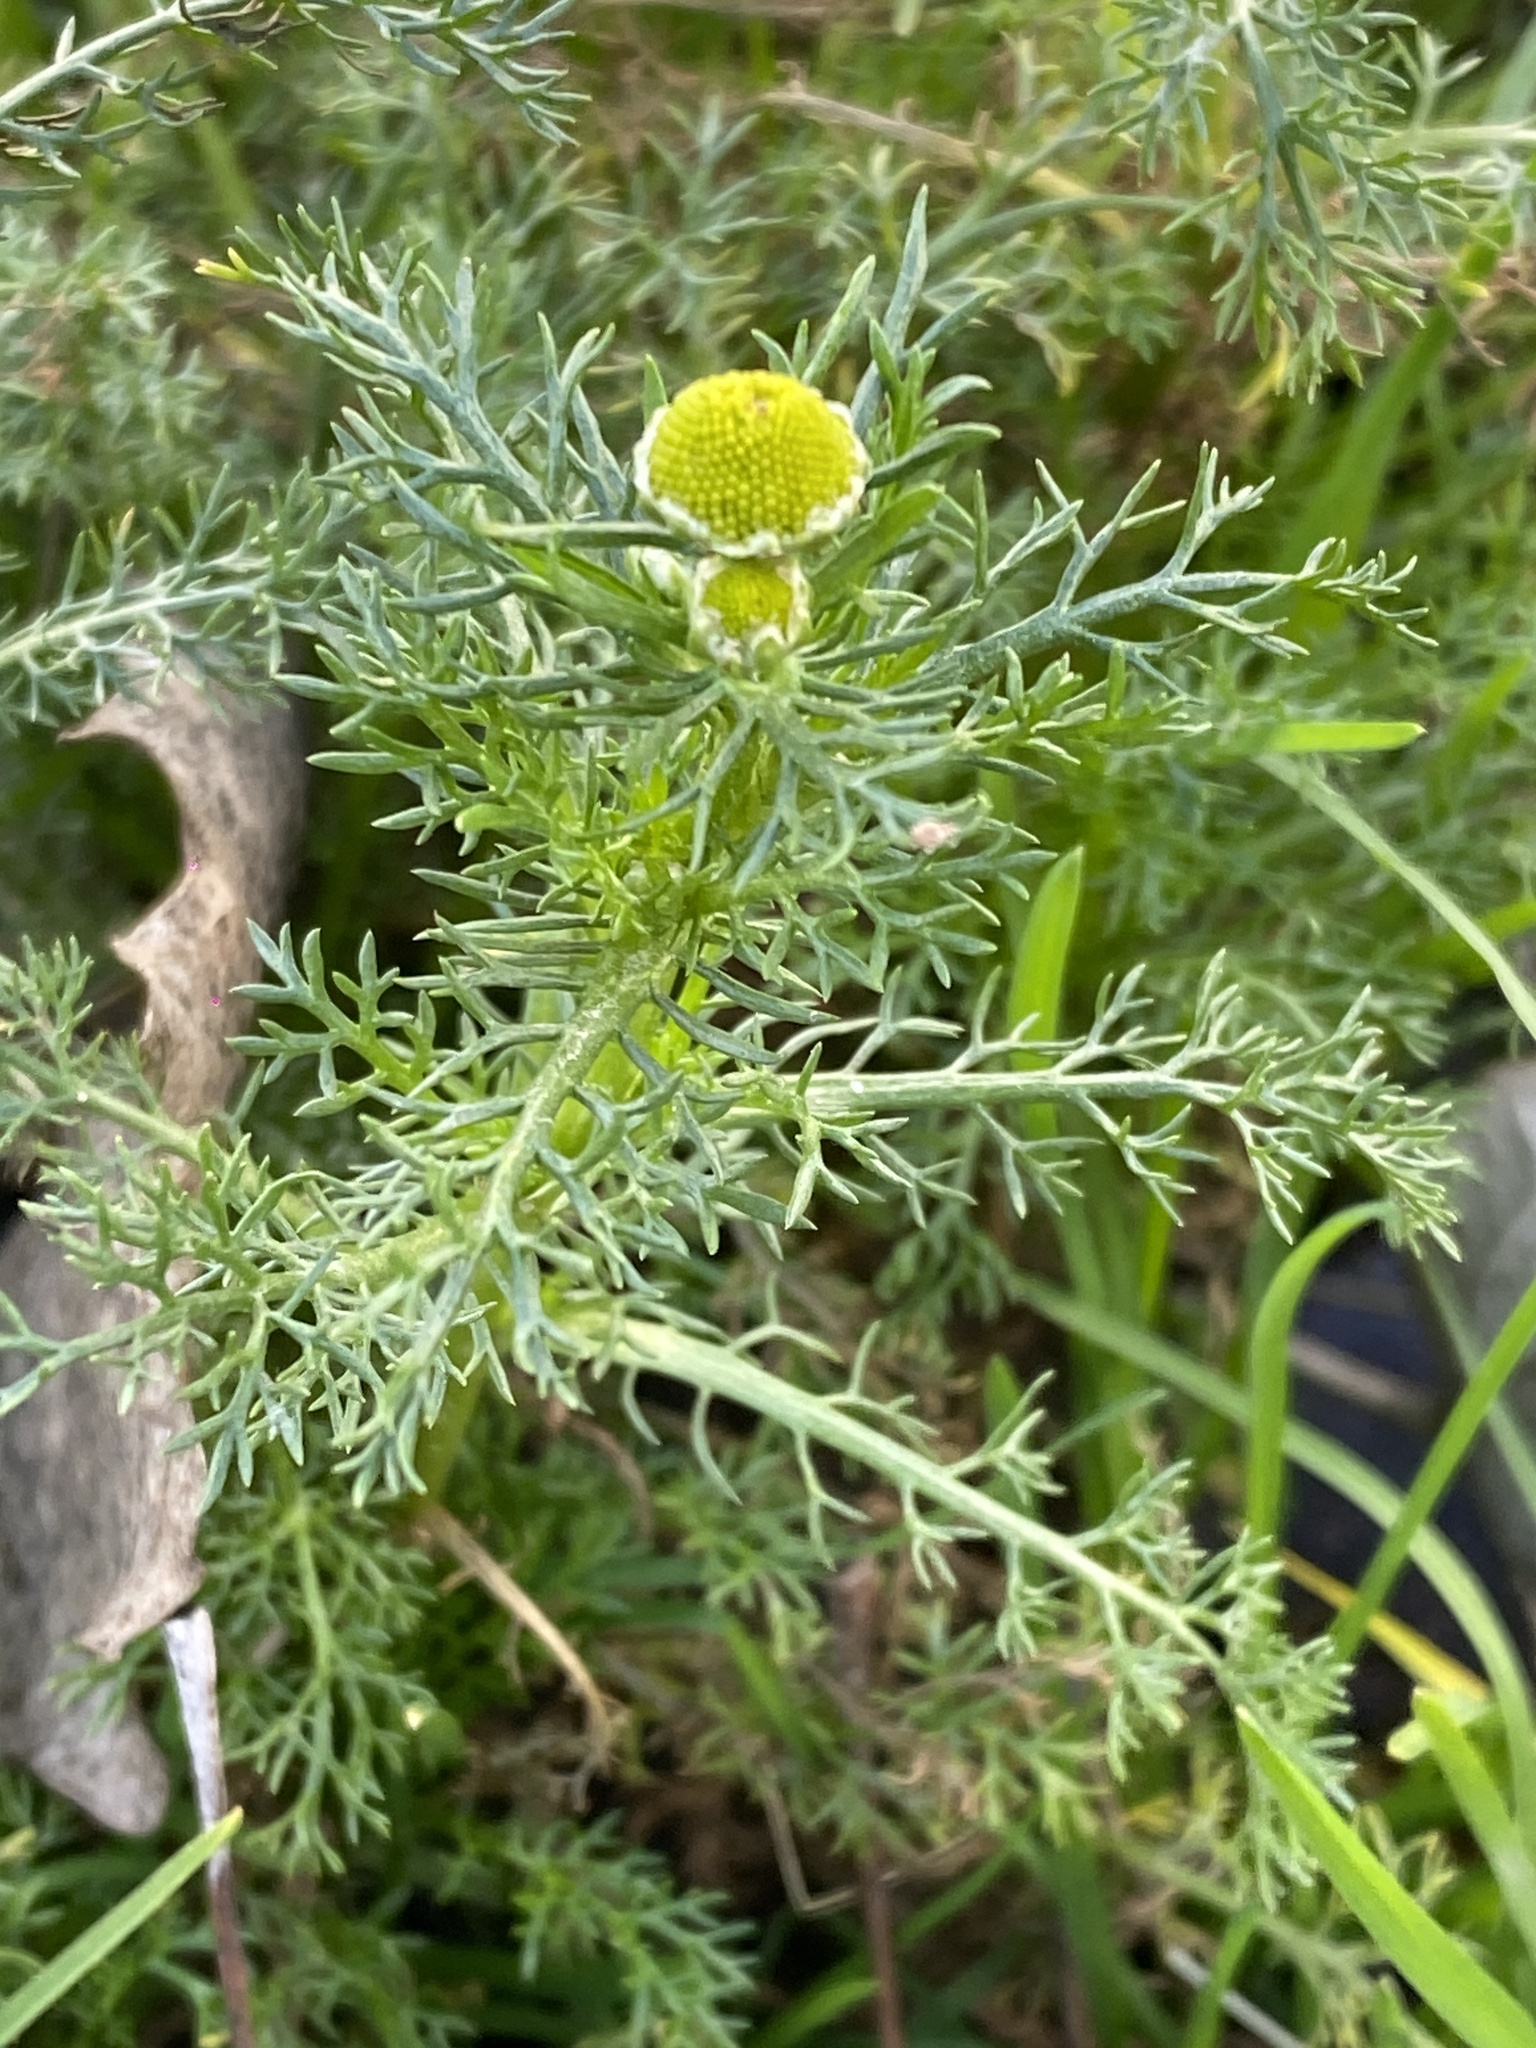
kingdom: Plantae
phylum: Tracheophyta
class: Magnoliopsida
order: Asterales
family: Asteraceae
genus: Matricaria
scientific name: Matricaria discoidea
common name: Disc mayweed
